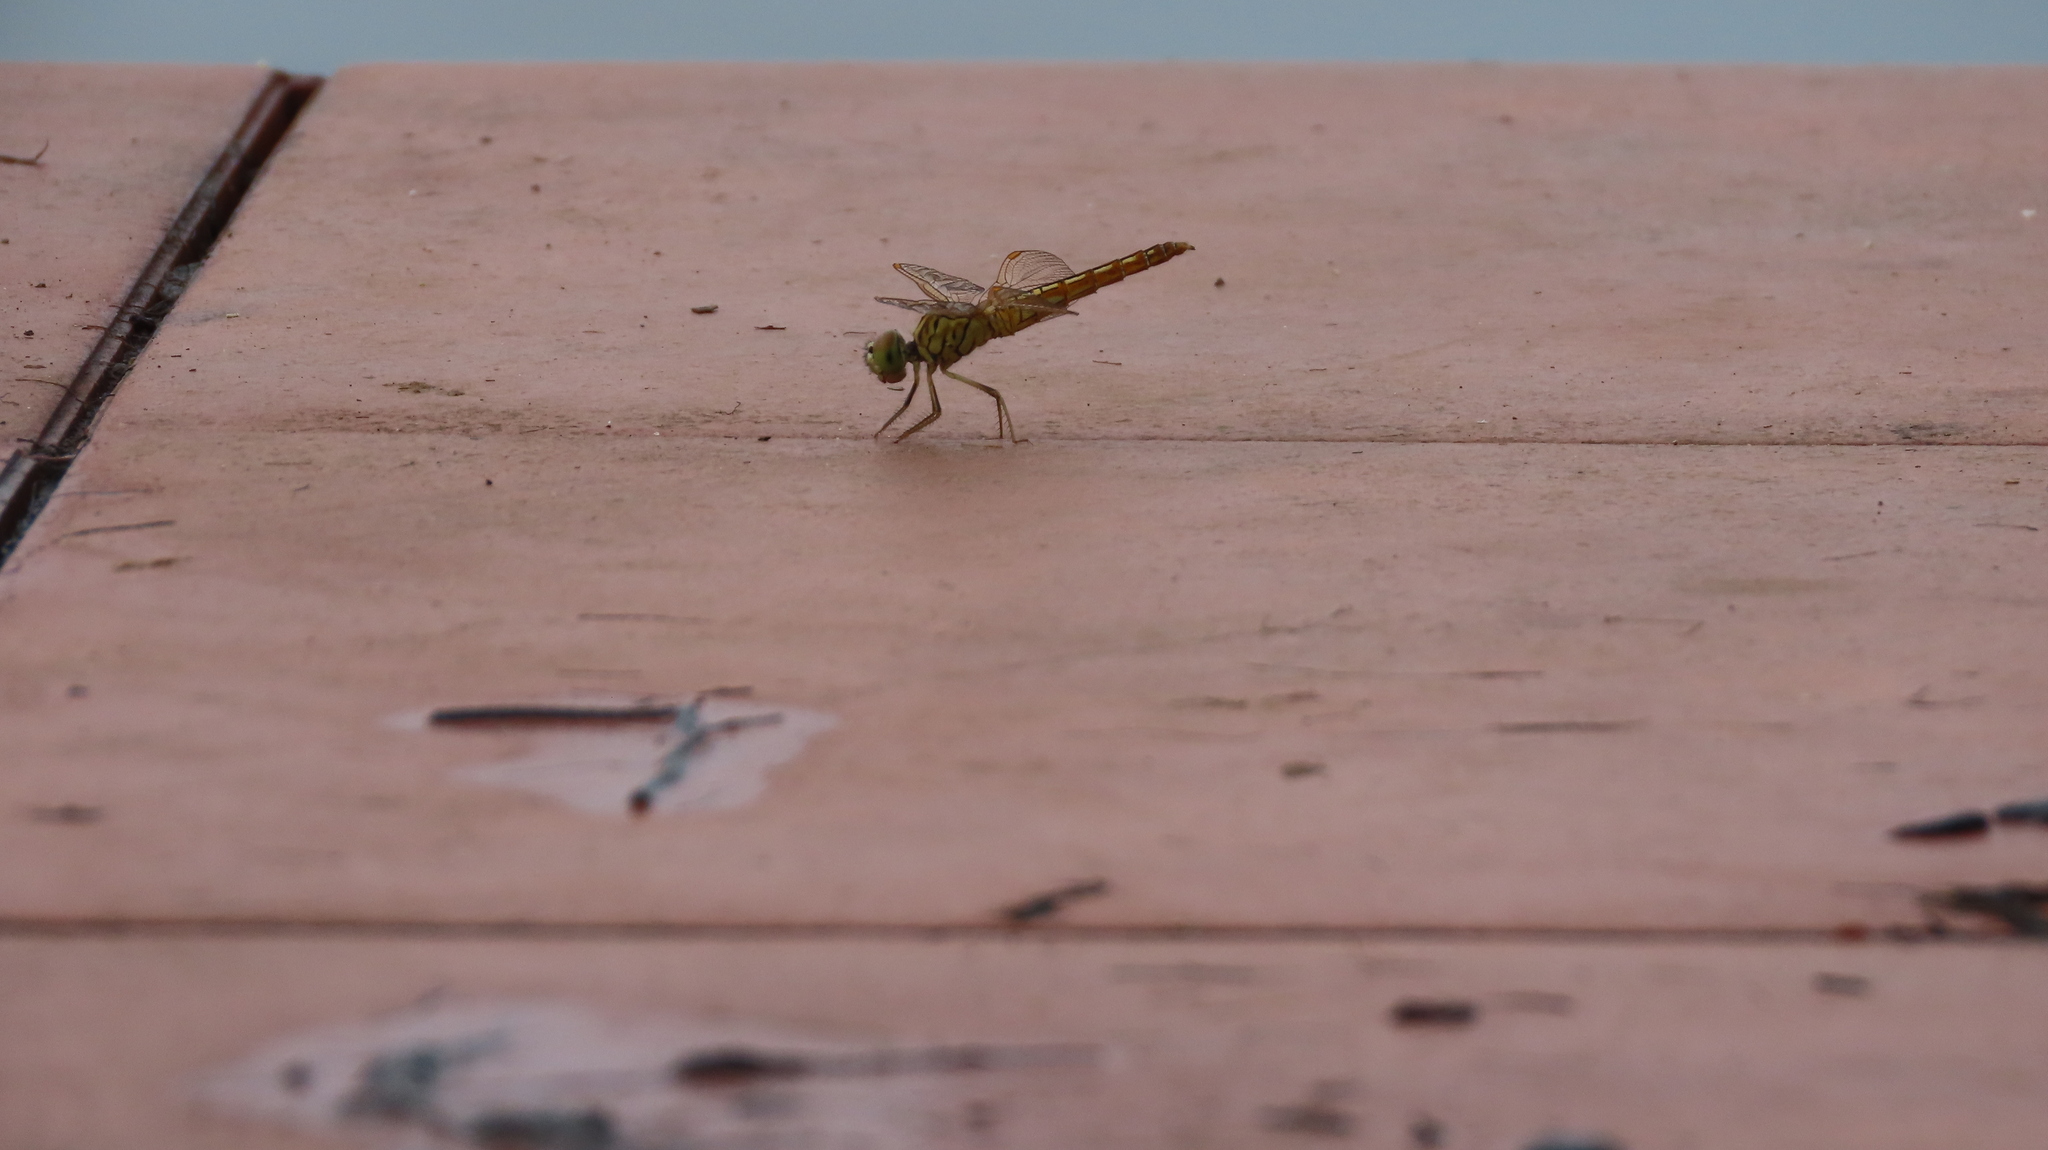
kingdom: Animalia
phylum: Arthropoda
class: Insecta
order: Odonata
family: Libellulidae
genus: Brachythemis
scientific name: Brachythemis contaminata
